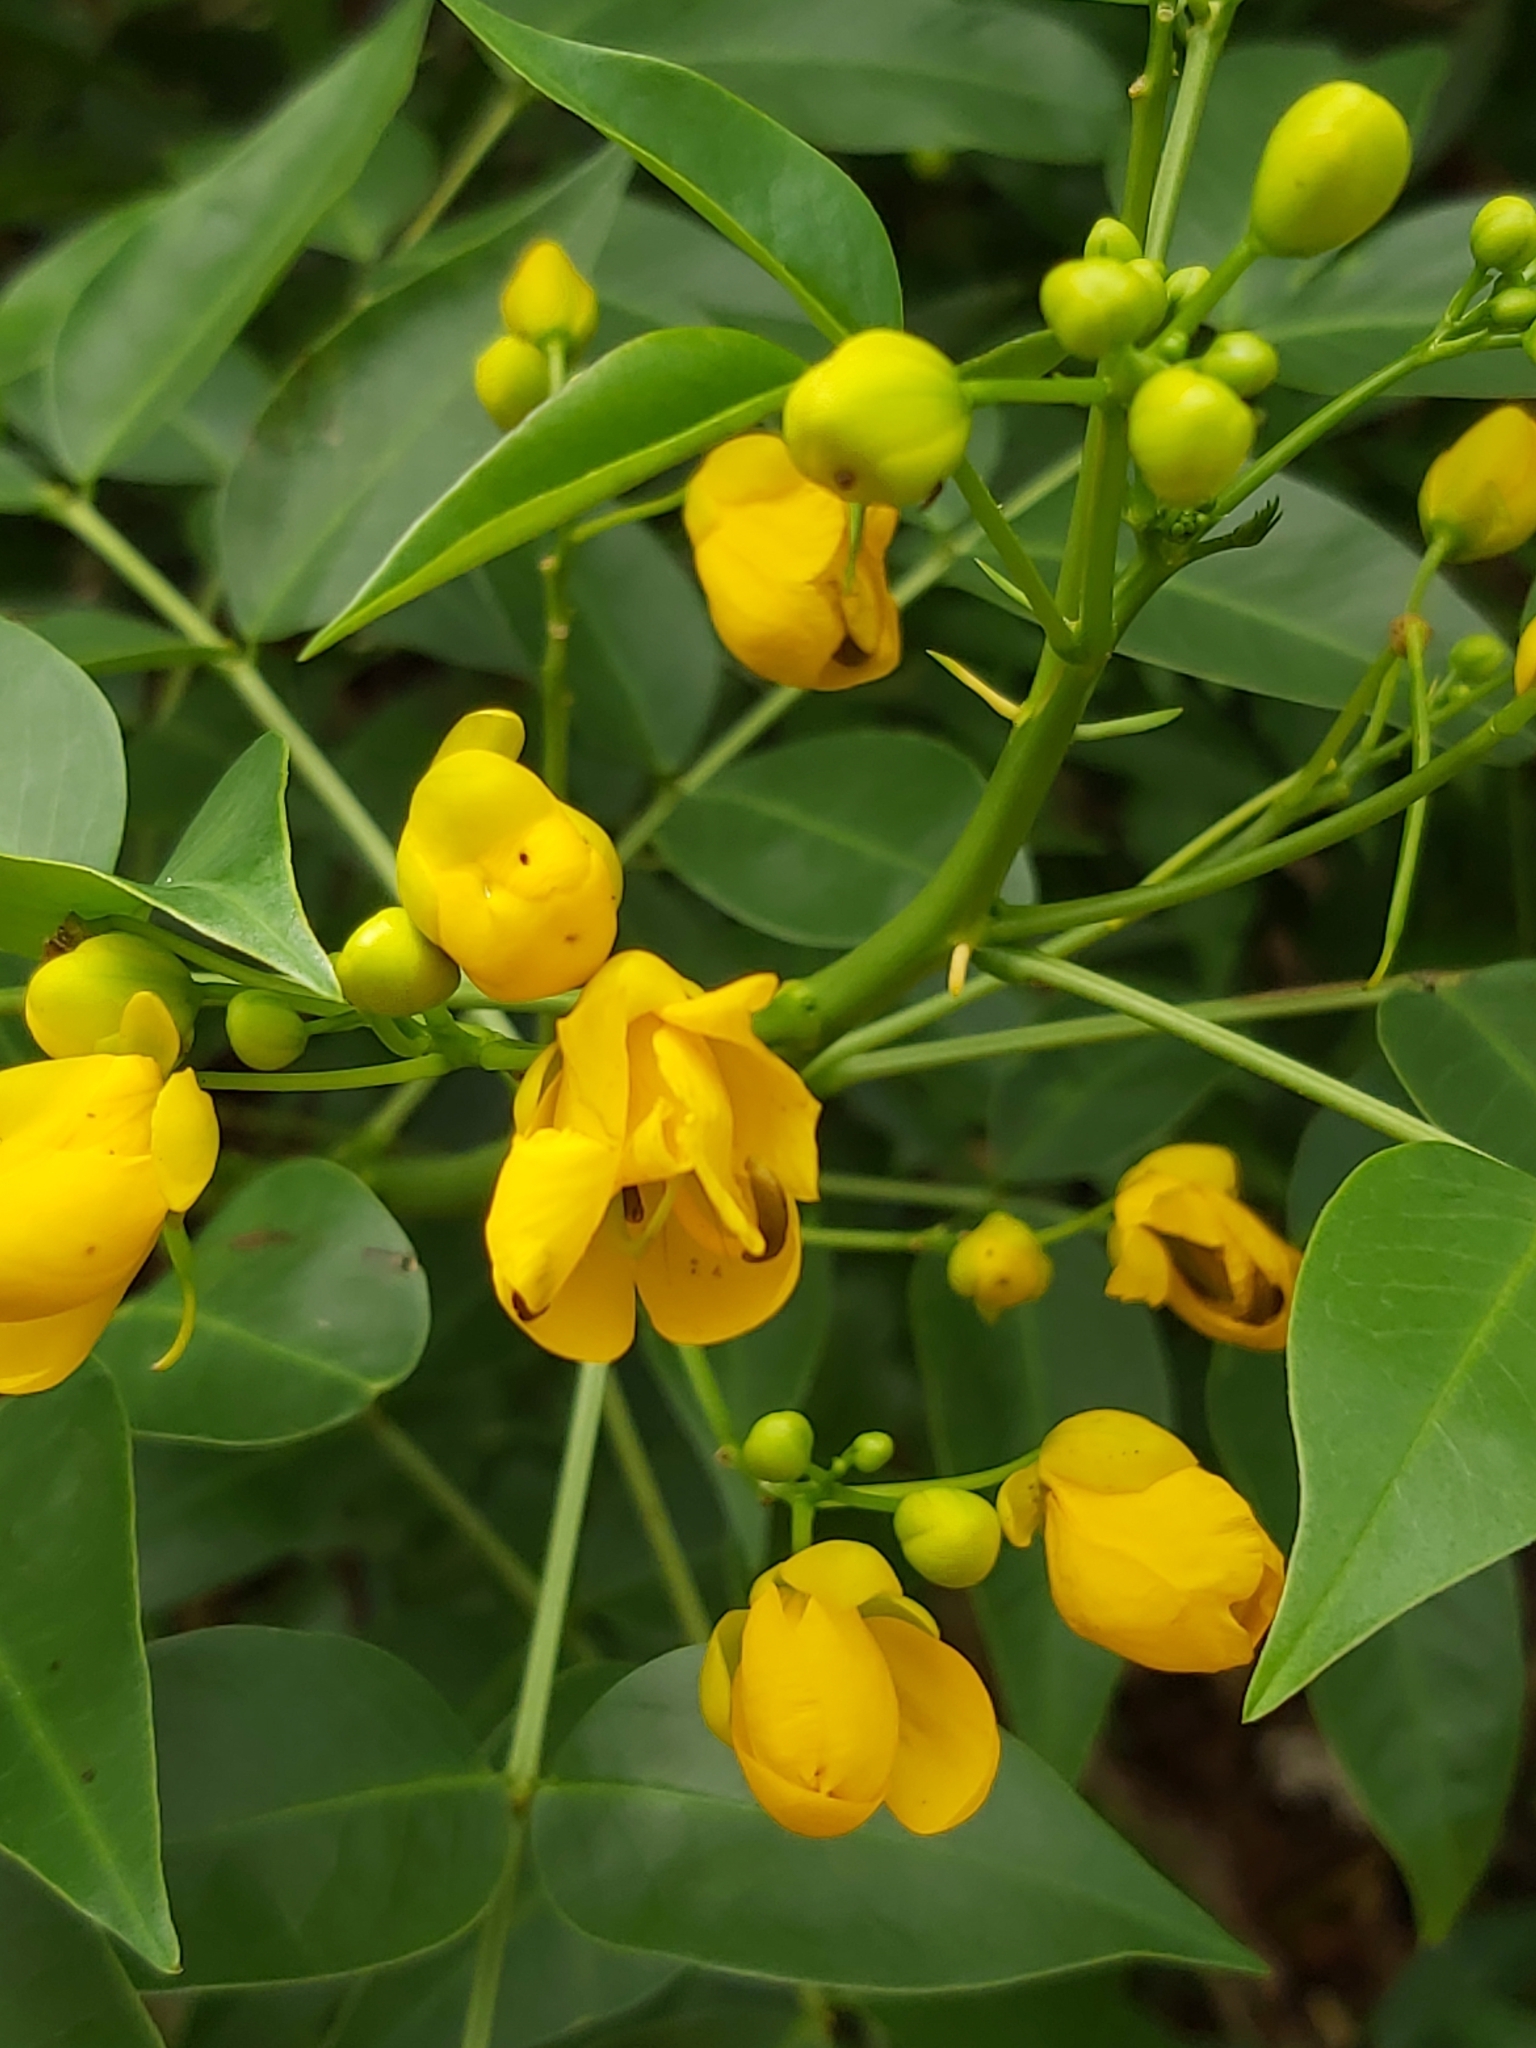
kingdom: Plantae
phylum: Tracheophyta
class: Magnoliopsida
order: Fabales
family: Fabaceae
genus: Senna
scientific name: Senna septemtrionalis
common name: Arsenic bush
